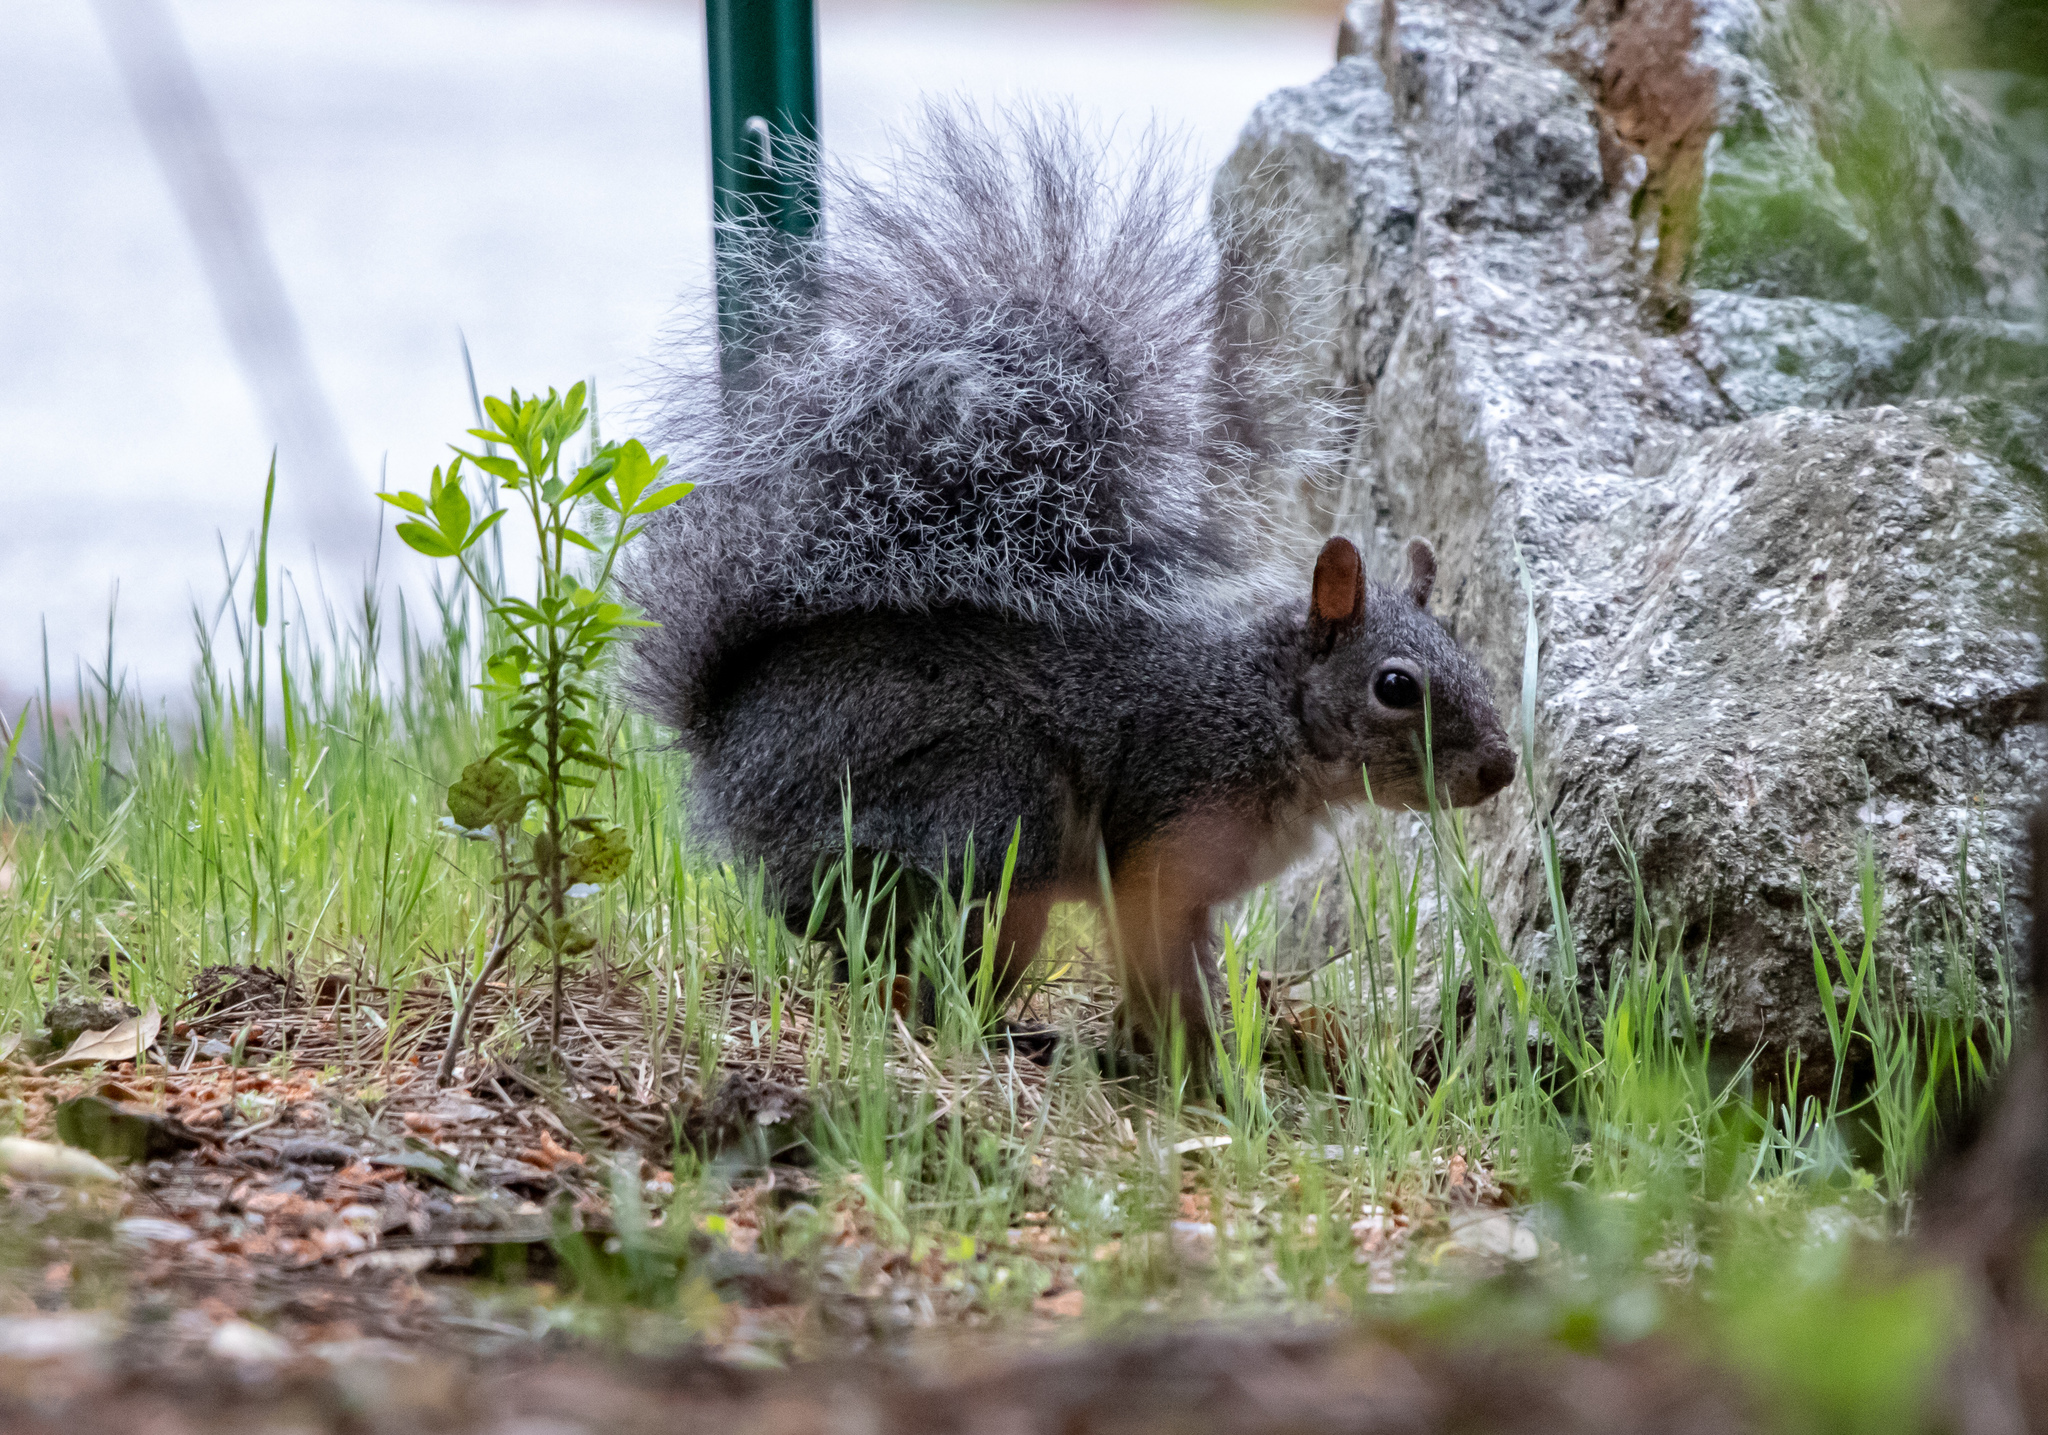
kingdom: Animalia
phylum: Chordata
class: Mammalia
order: Rodentia
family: Sciuridae
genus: Sciurus
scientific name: Sciurus griseus
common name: Western gray squirrel
